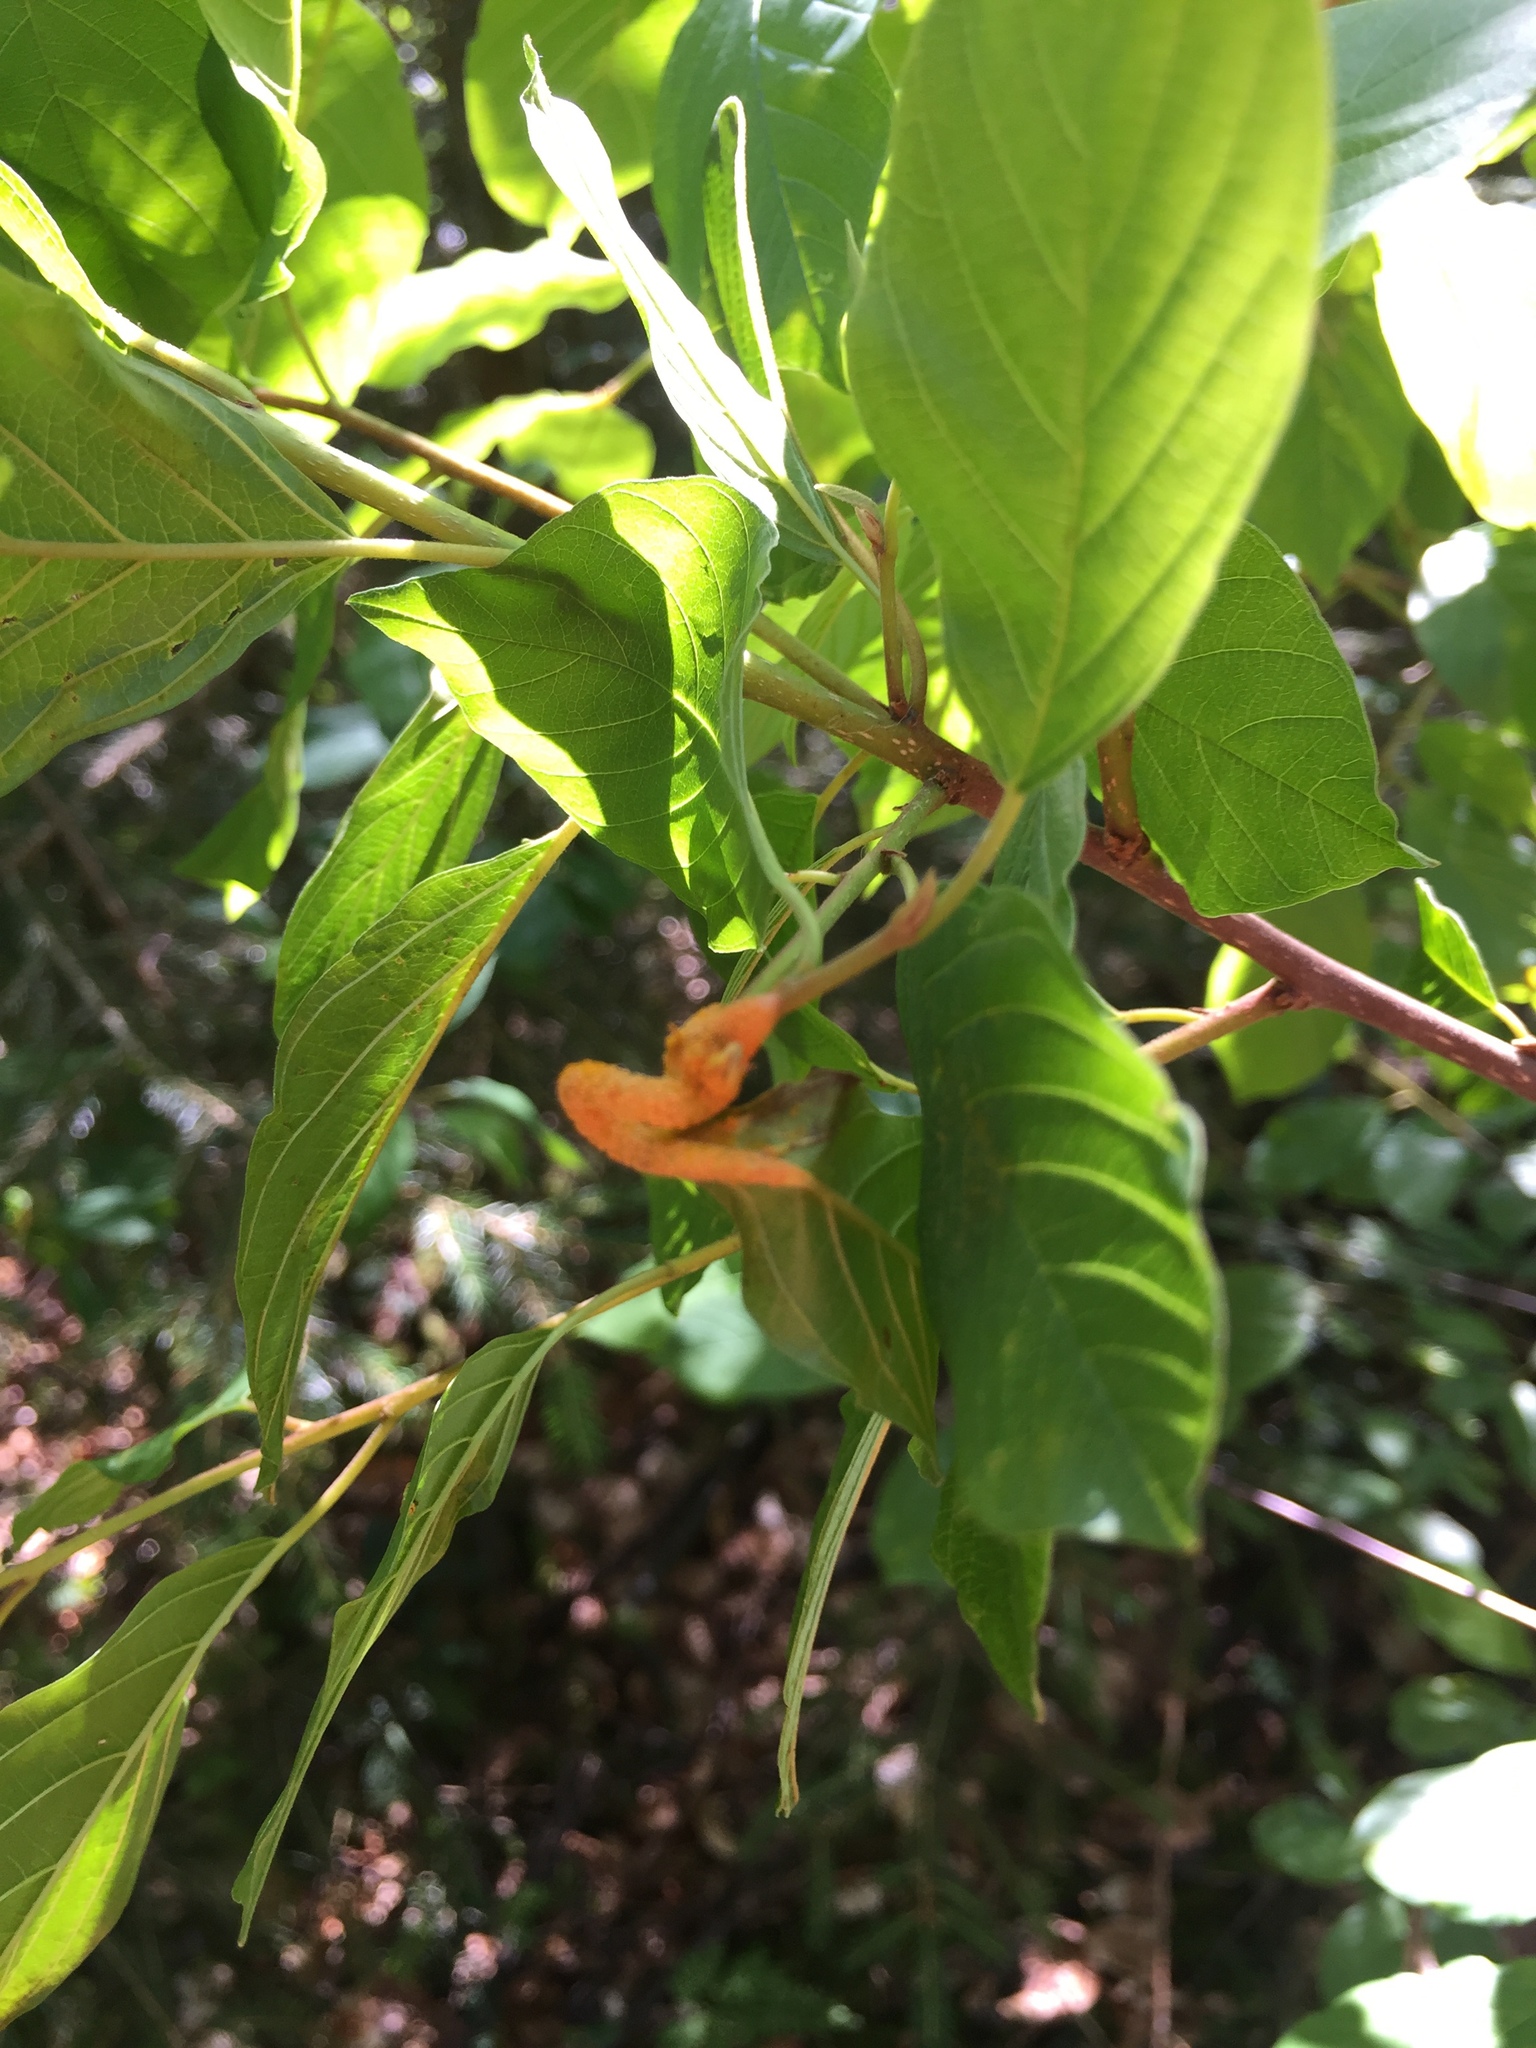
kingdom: Fungi
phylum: Basidiomycota
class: Pucciniomycetes
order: Pucciniales
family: Pucciniaceae
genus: Puccinia
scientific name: Puccinia coronata
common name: Crown rust
